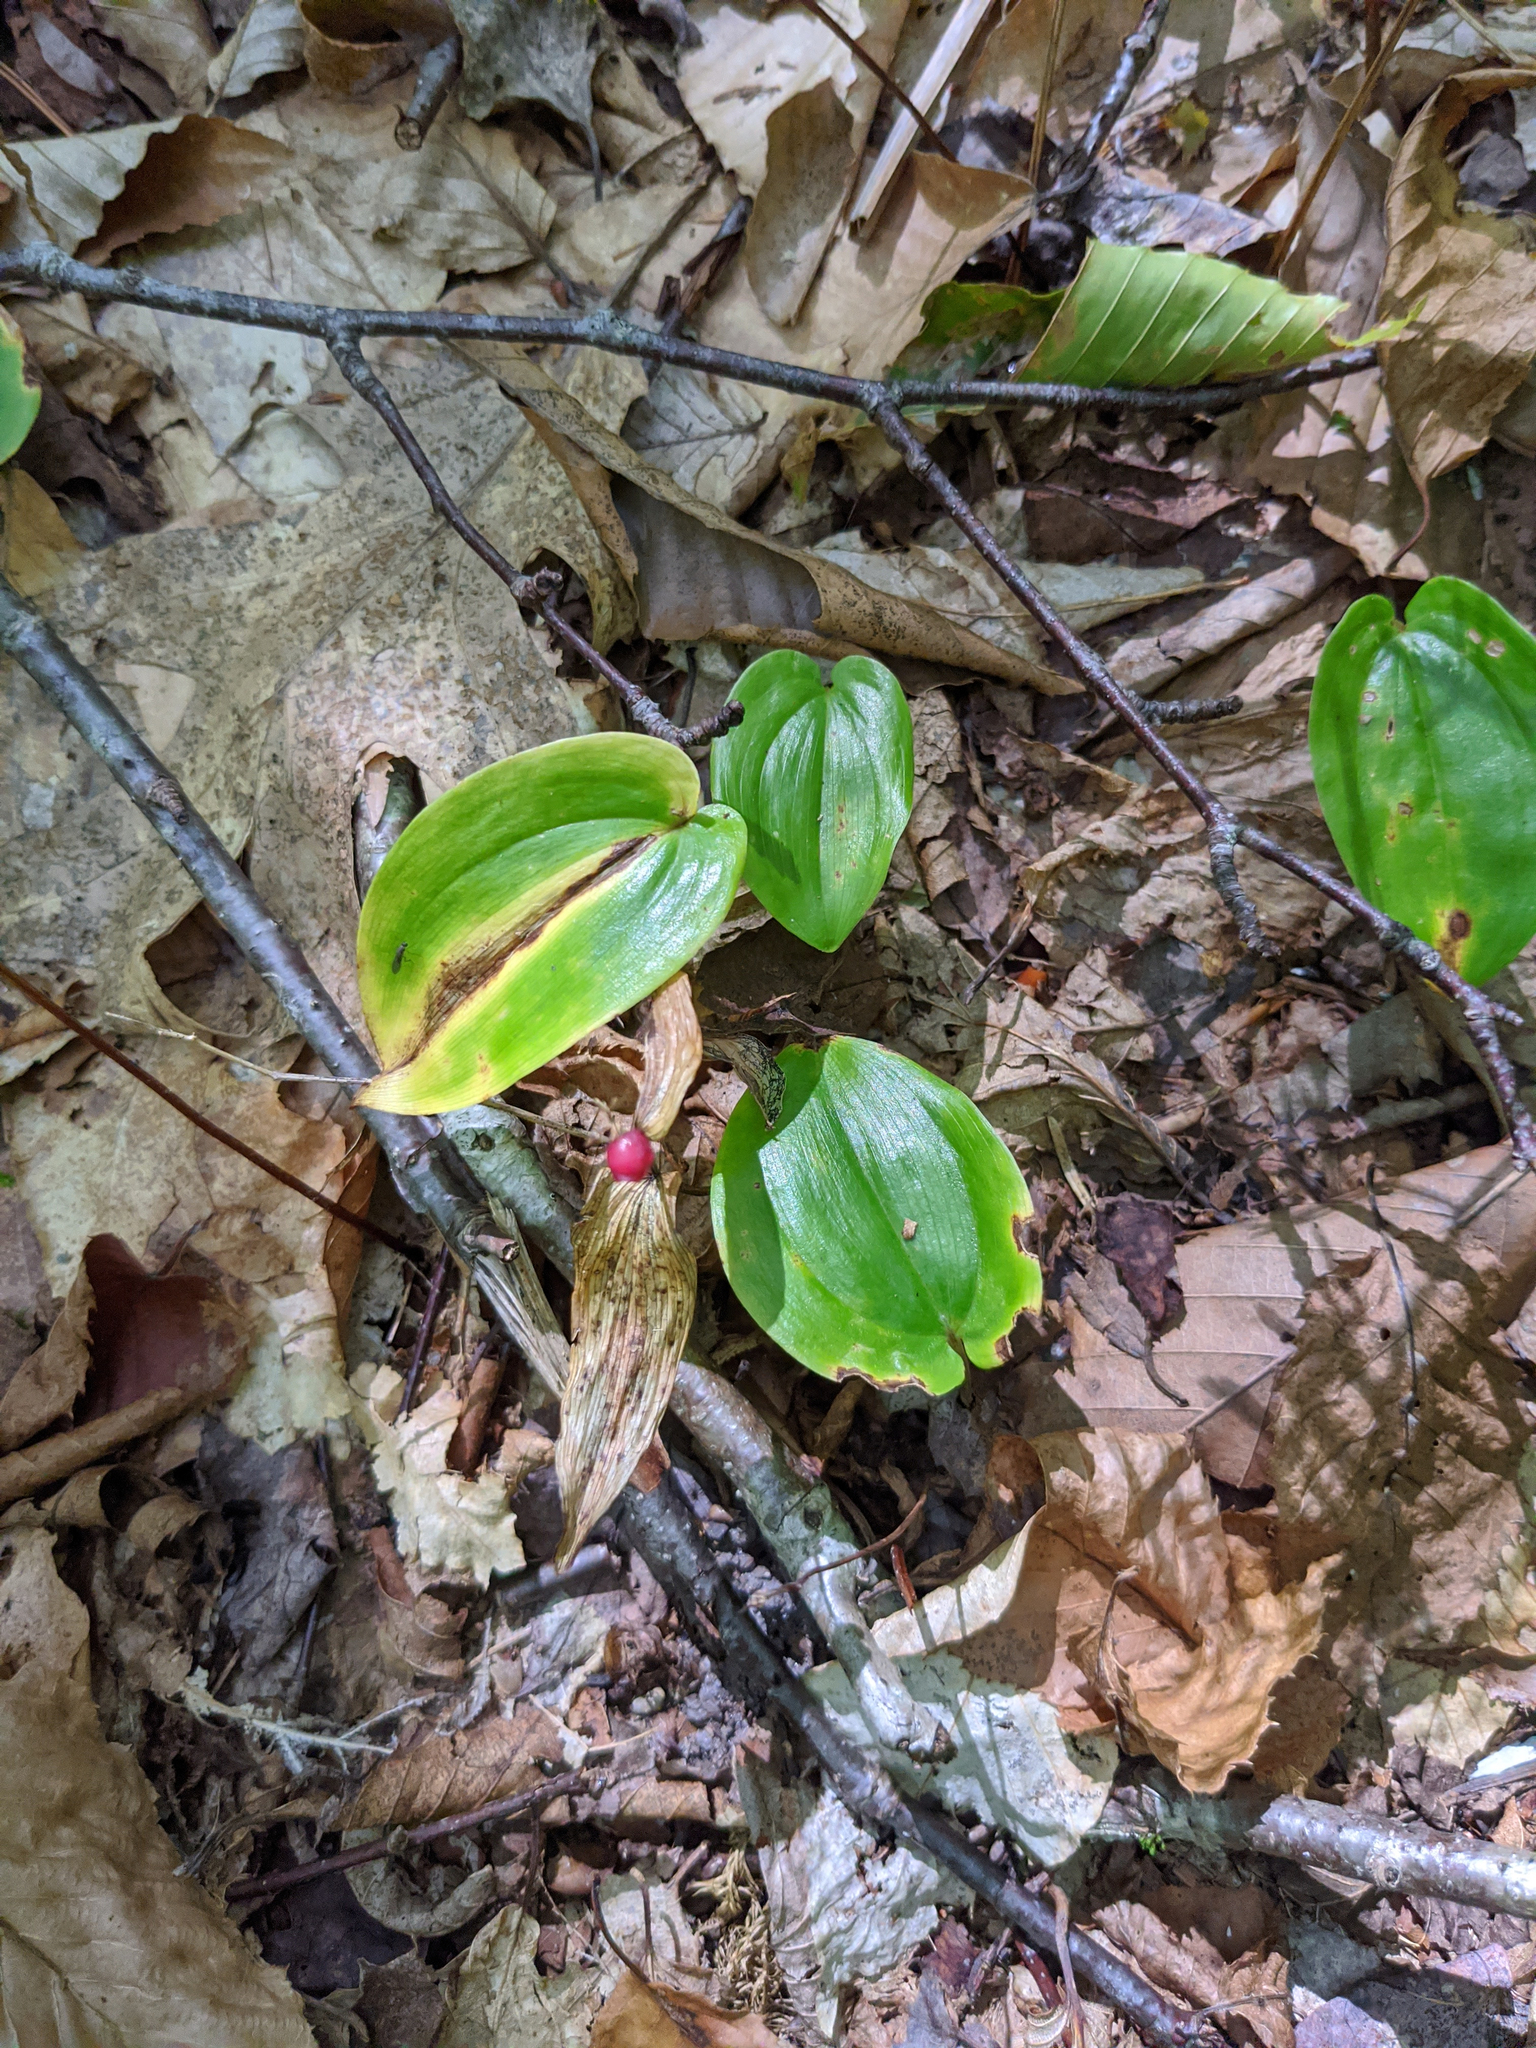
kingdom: Plantae
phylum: Tracheophyta
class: Liliopsida
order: Asparagales
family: Asparagaceae
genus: Maianthemum
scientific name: Maianthemum canadense
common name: False lily-of-the-valley
